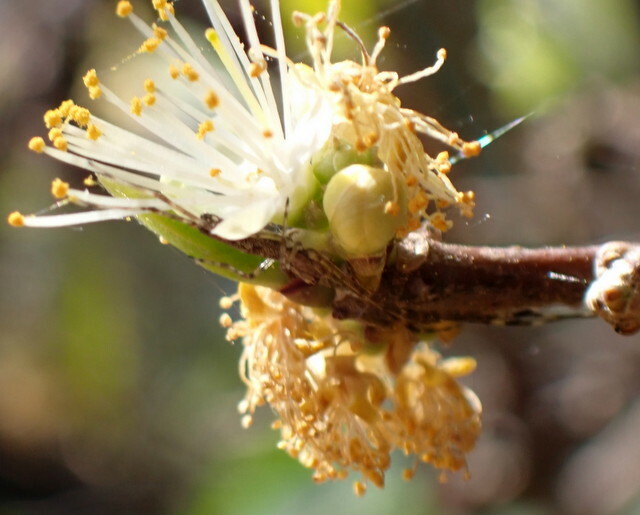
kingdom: Plantae
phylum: Tracheophyta
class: Magnoliopsida
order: Ericales
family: Symplocaceae
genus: Symplocos
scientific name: Symplocos tinctoria
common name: Horse-sugar
